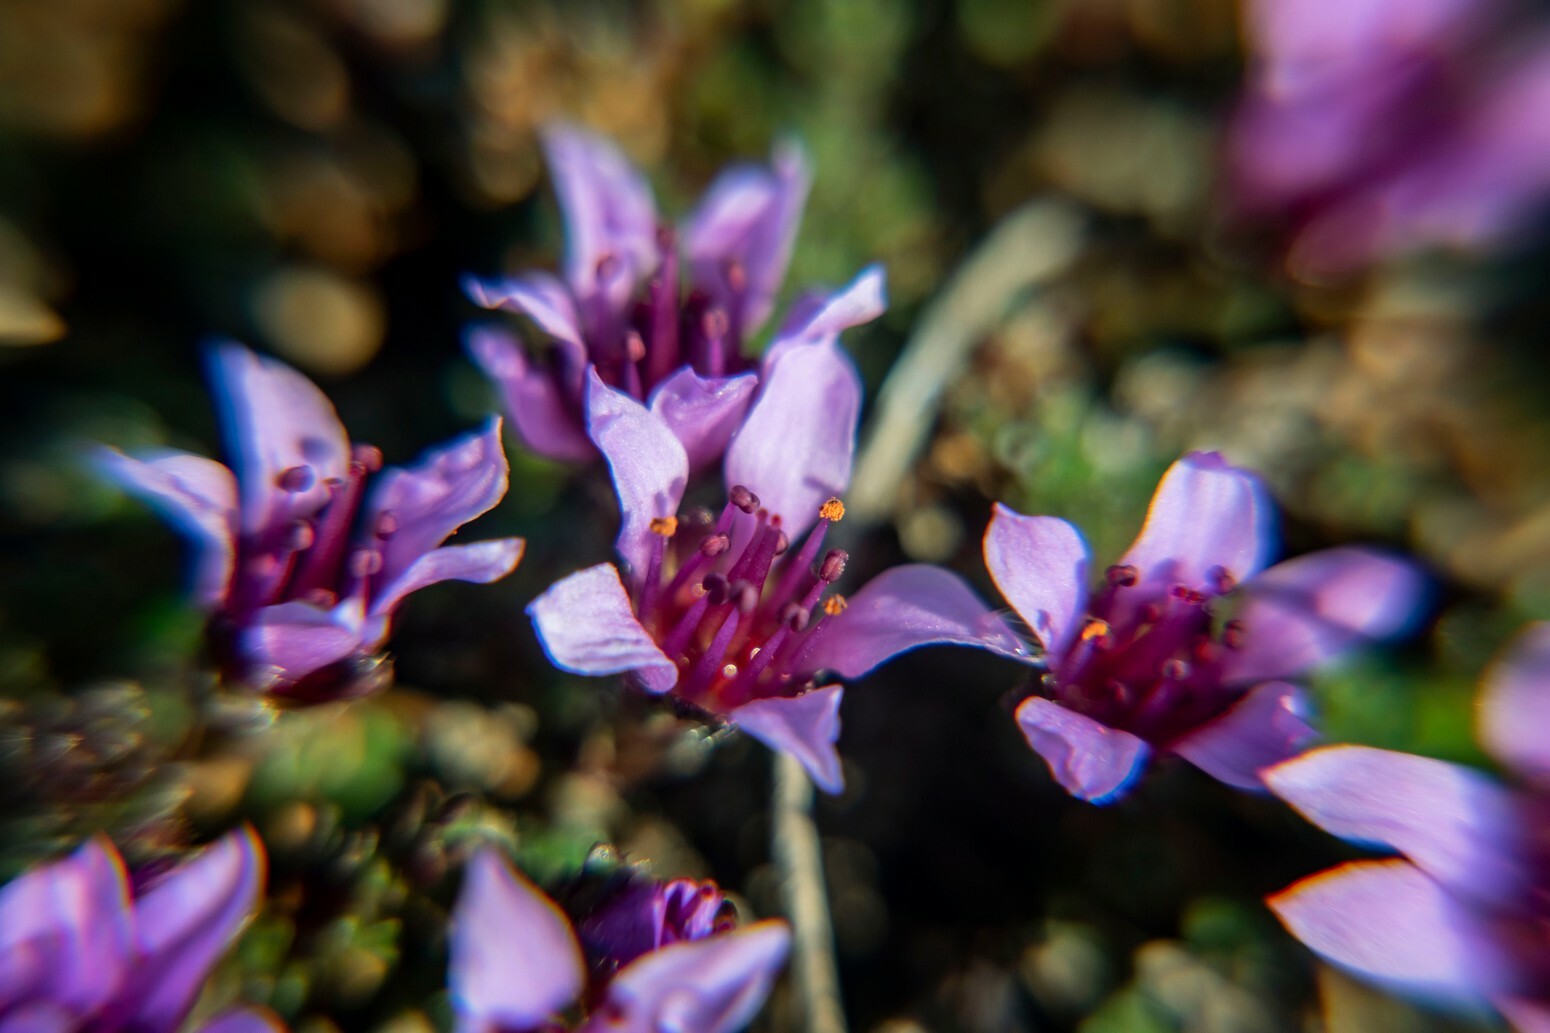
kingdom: Plantae
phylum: Tracheophyta
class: Magnoliopsida
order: Saxifragales
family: Saxifragaceae
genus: Saxifraga
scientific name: Saxifraga oppositifolia
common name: Purple saxifrage
